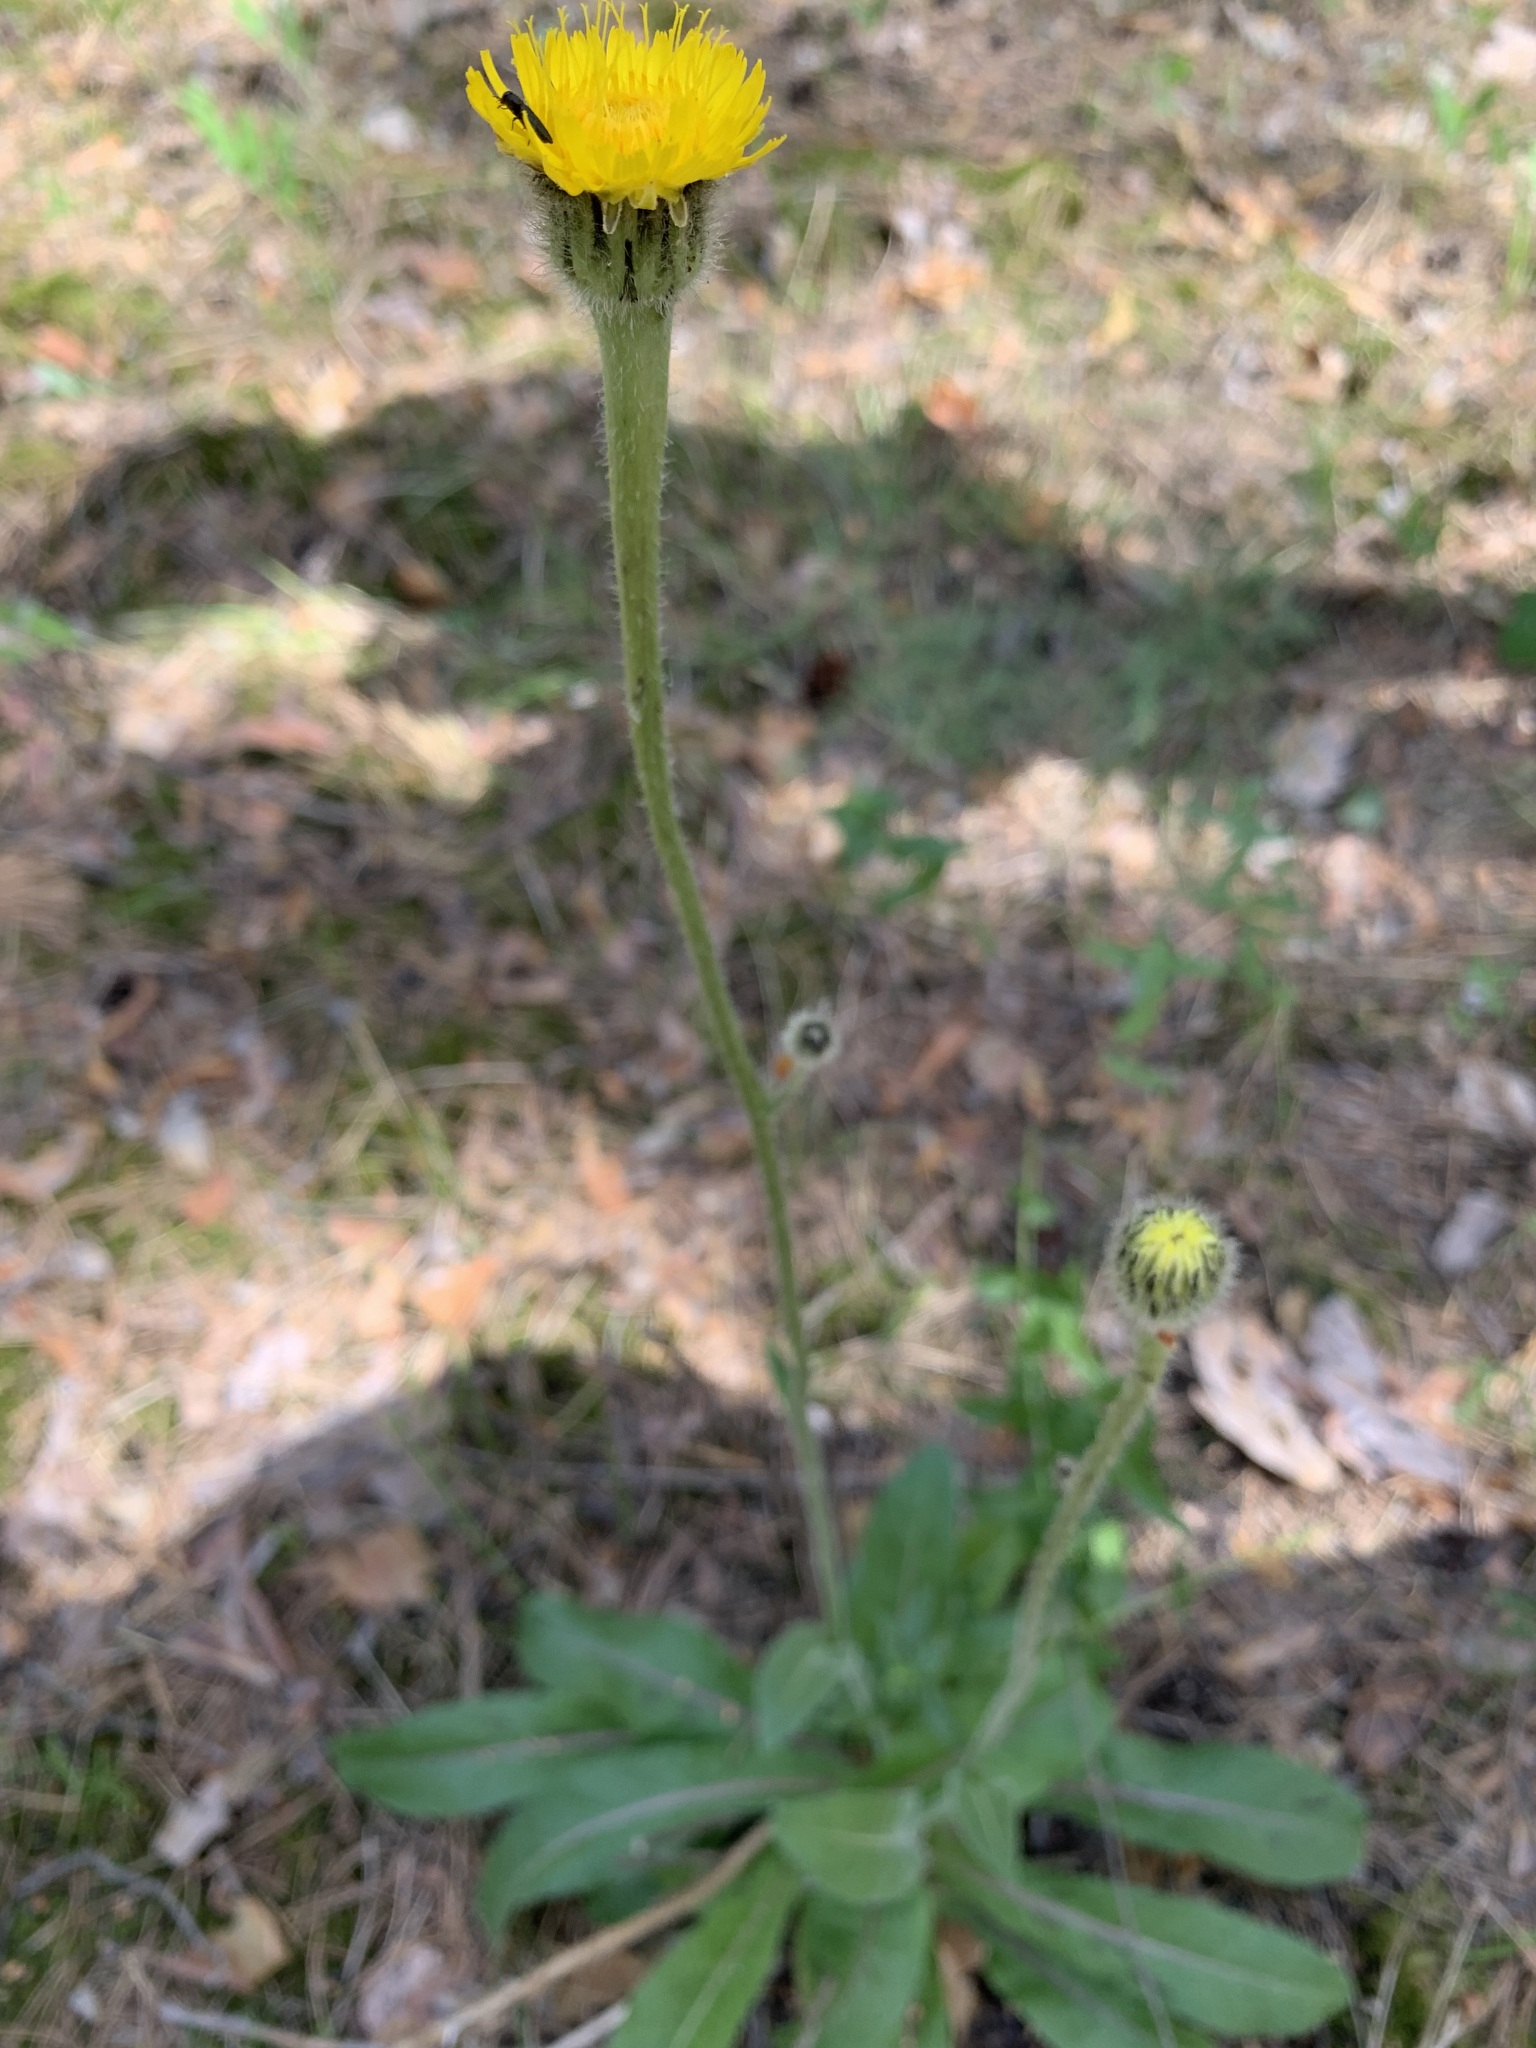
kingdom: Plantae
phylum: Tracheophyta
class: Magnoliopsida
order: Asterales
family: Asteraceae
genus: Trommsdorffia
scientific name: Trommsdorffia maculata
